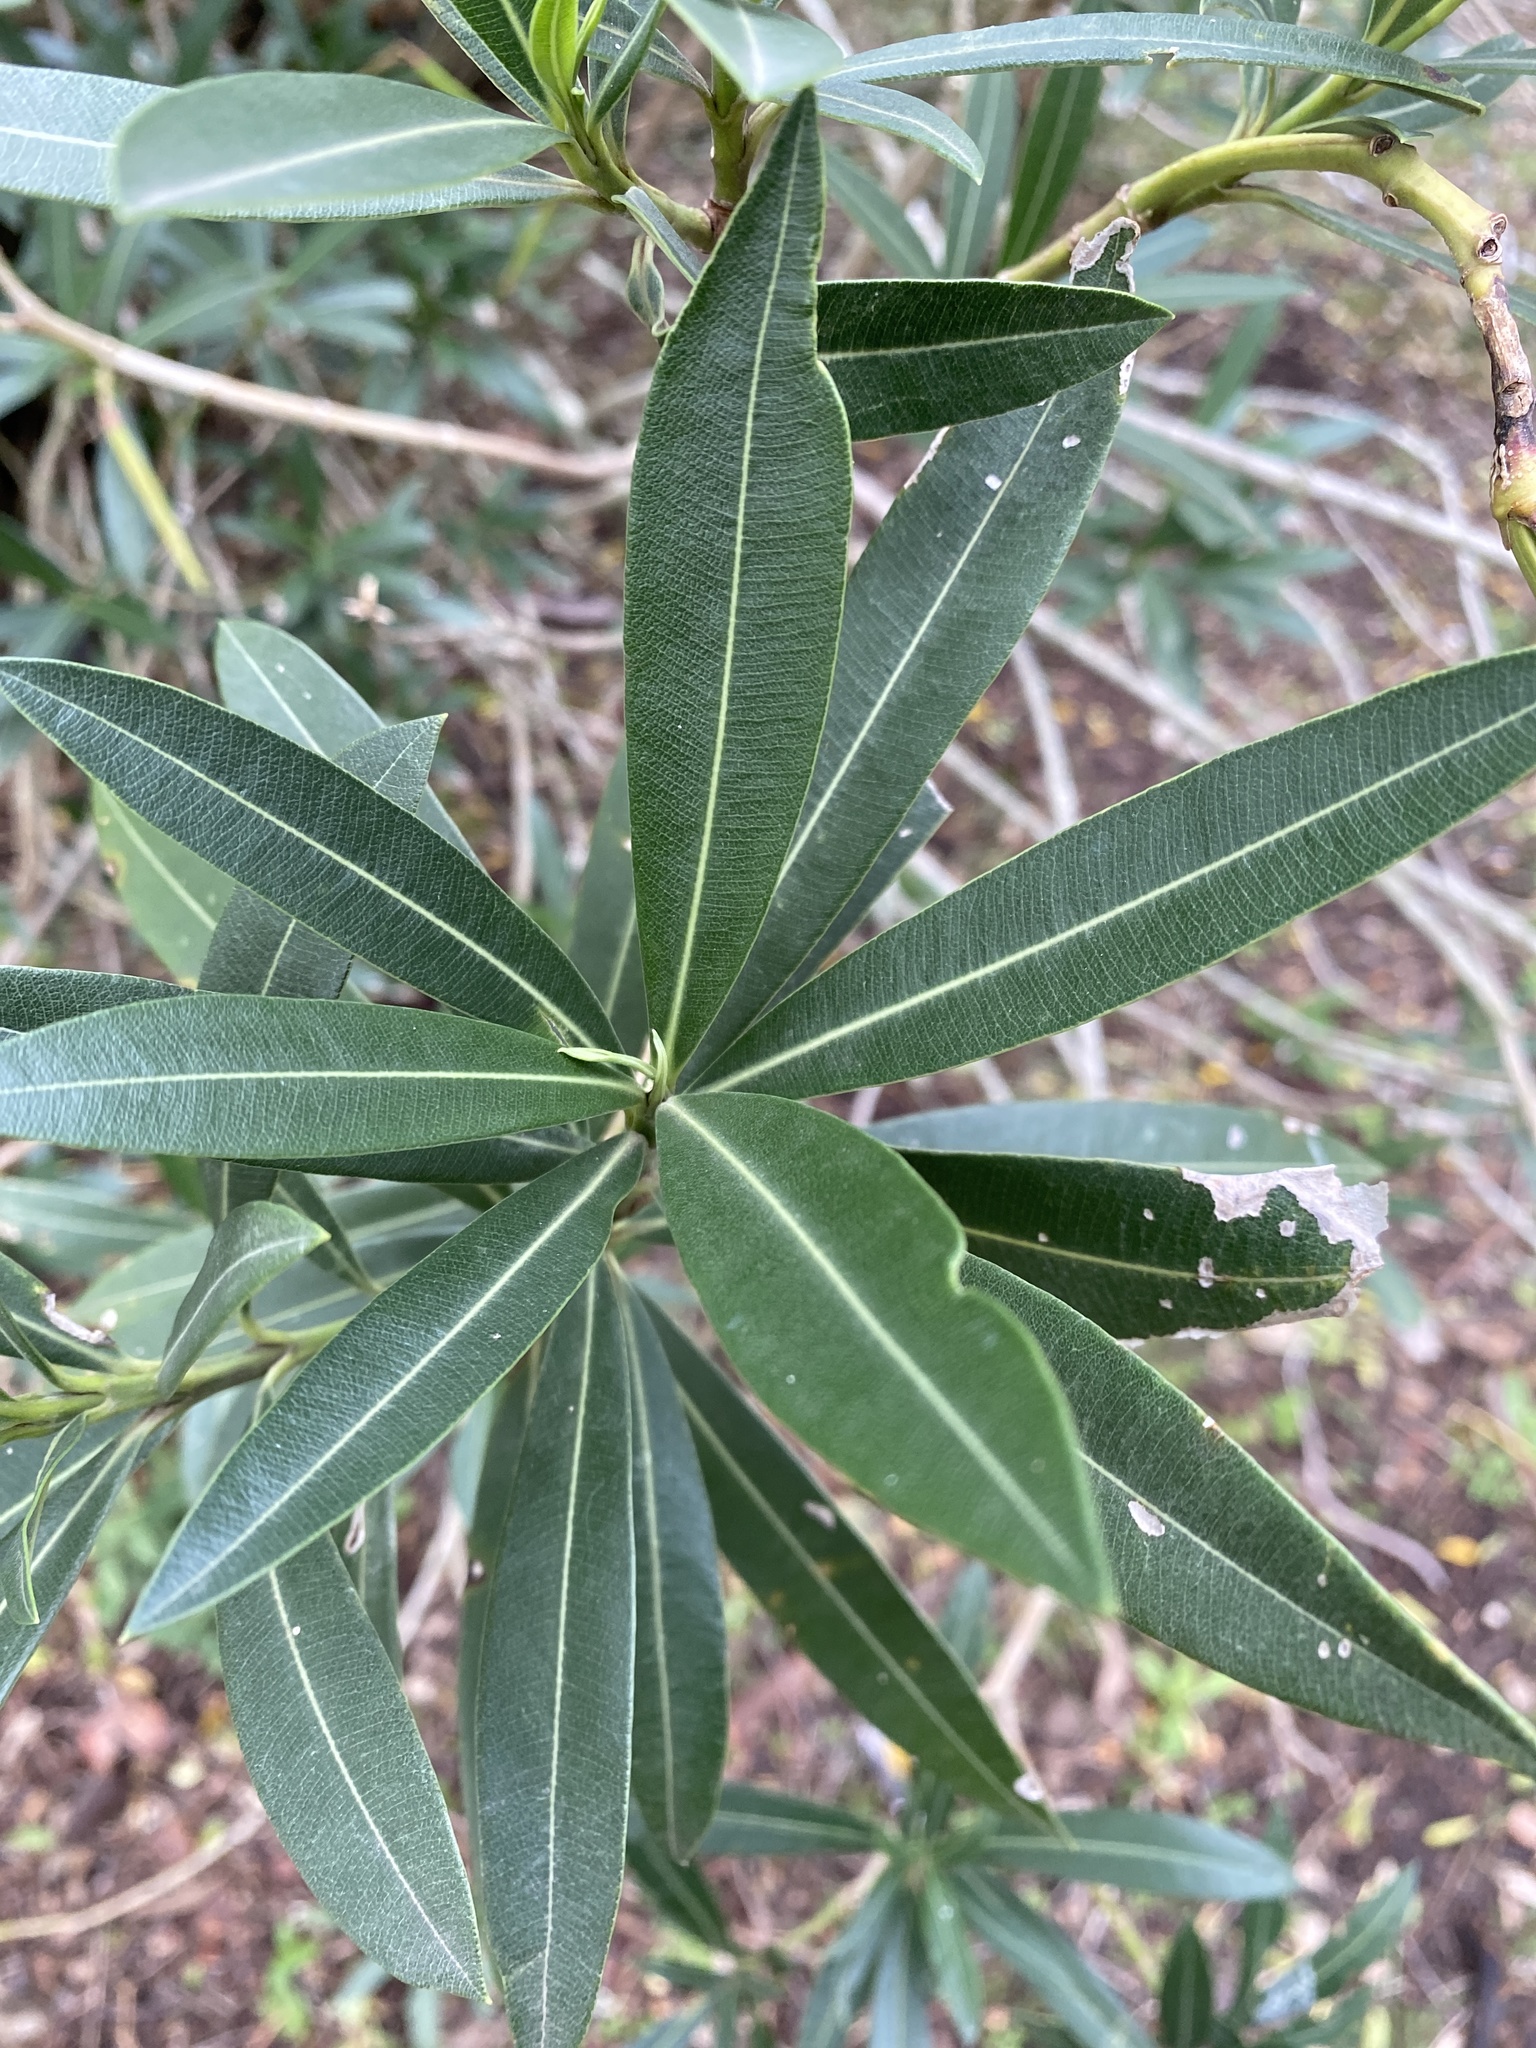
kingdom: Plantae
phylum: Tracheophyta
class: Magnoliopsida
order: Gentianales
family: Apocynaceae
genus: Nerium
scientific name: Nerium oleander
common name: Oleander
